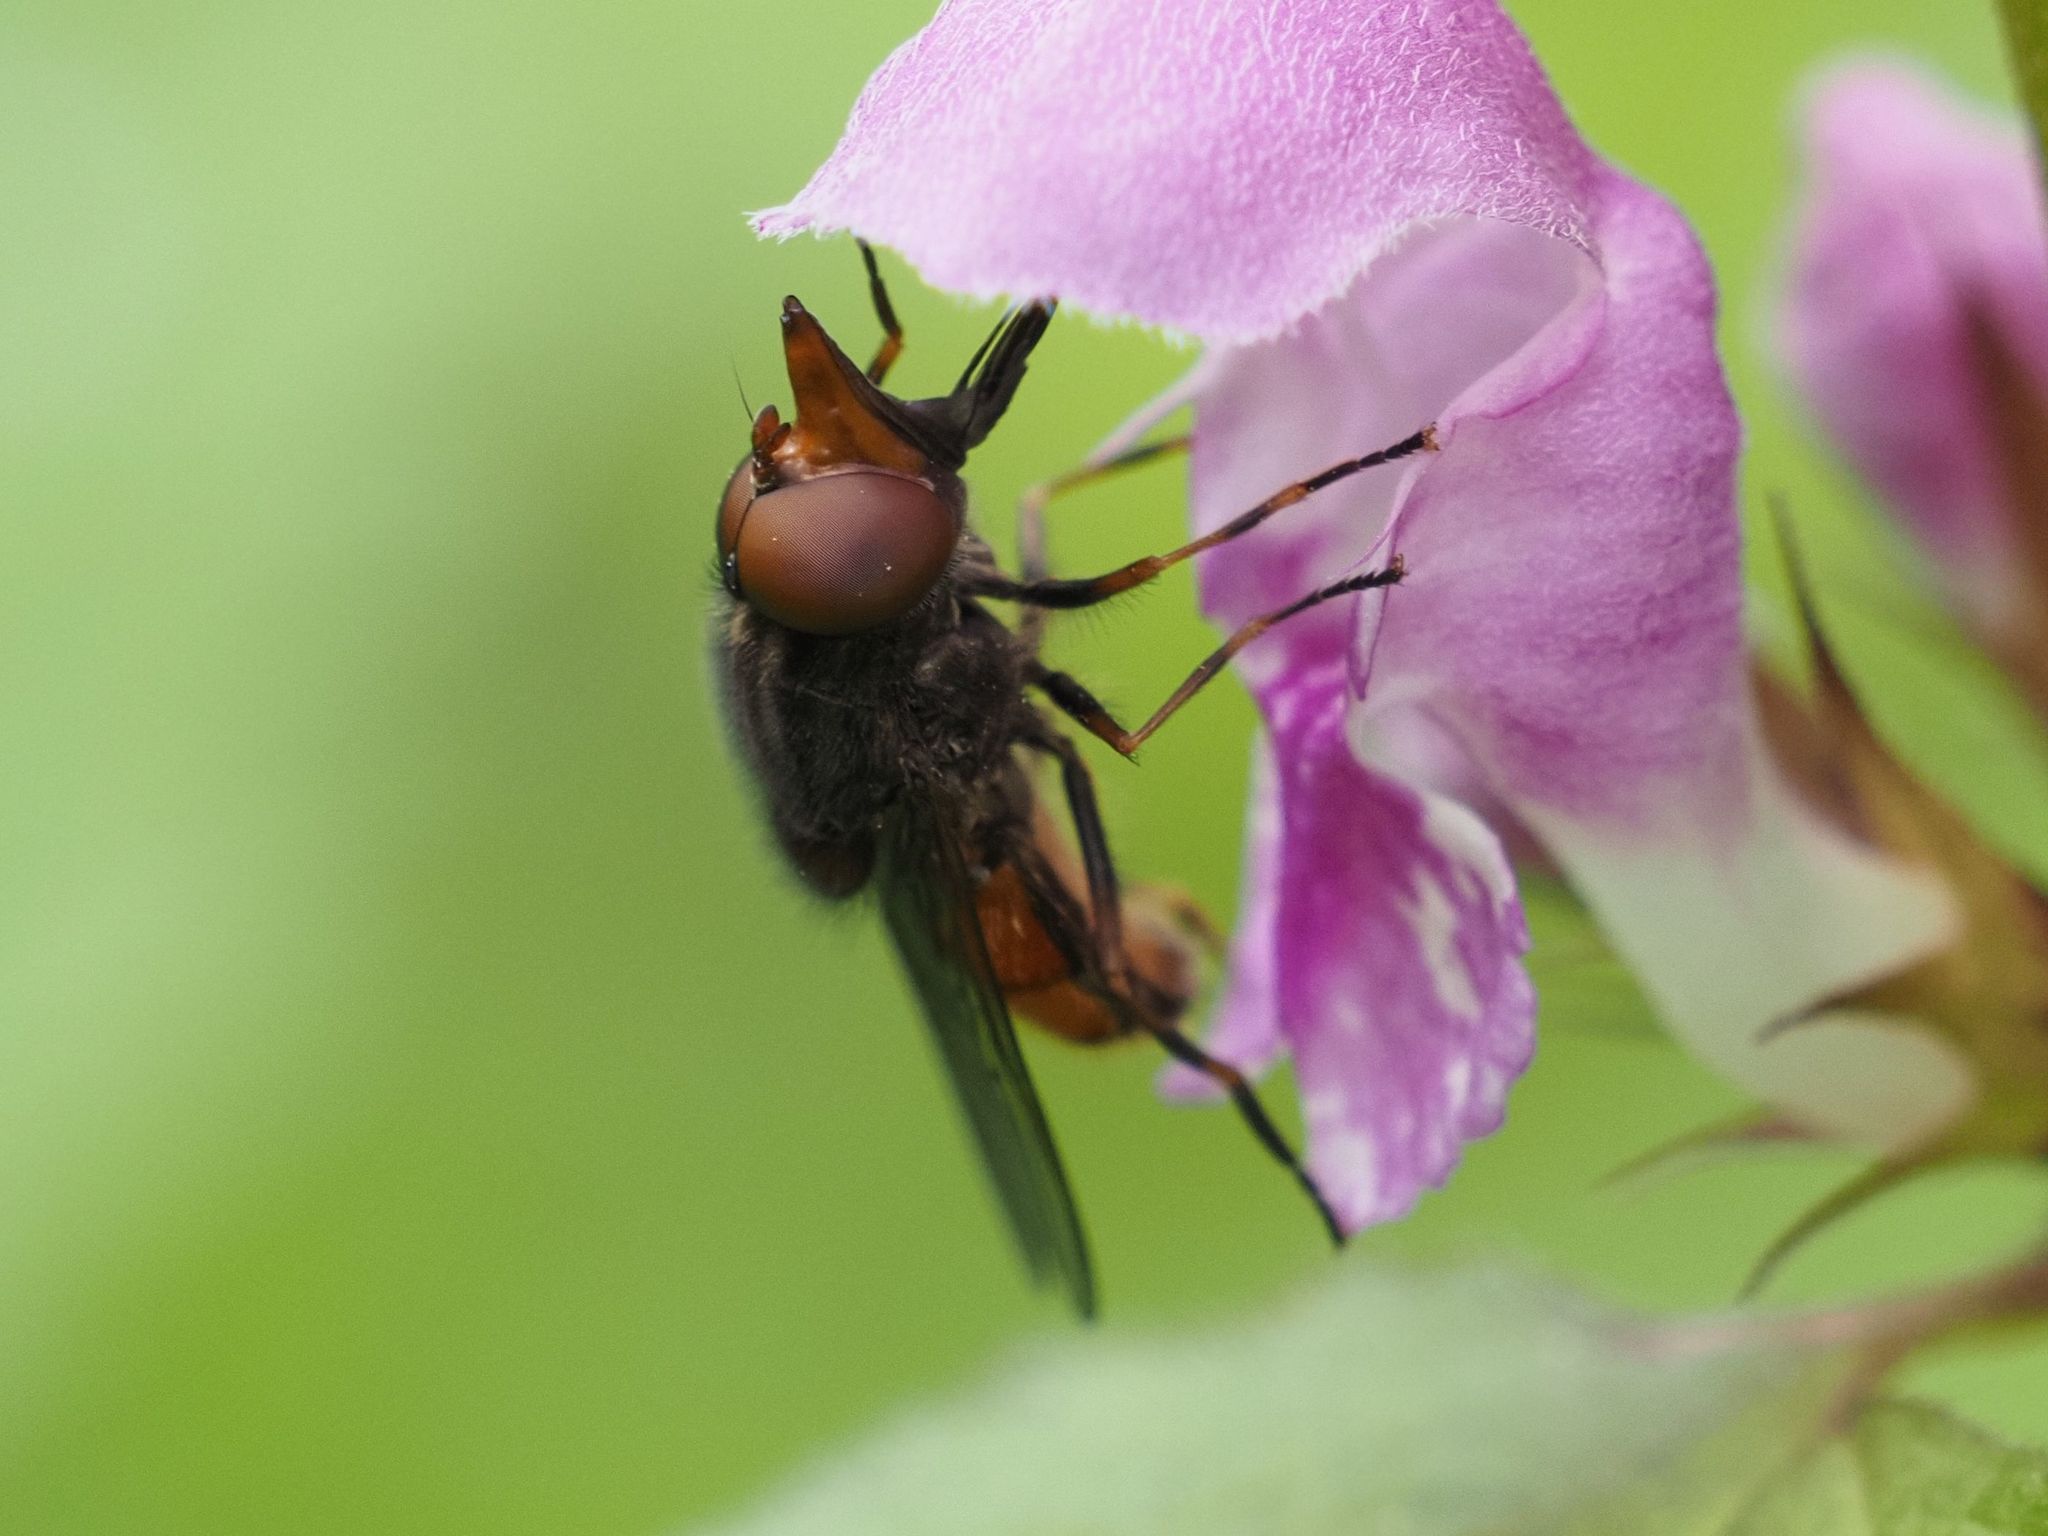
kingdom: Animalia
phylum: Arthropoda
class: Insecta
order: Diptera
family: Syrphidae
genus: Rhingia
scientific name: Rhingia campestris
